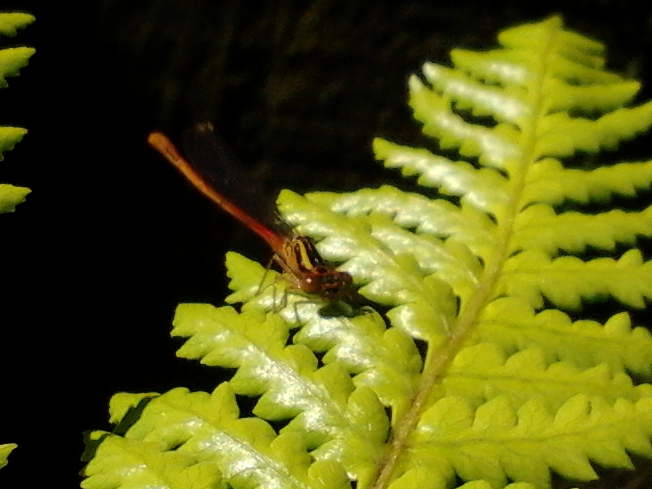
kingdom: Animalia
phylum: Arthropoda
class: Insecta
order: Odonata
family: Coenagrionidae
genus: Xanthocnemis
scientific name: Xanthocnemis zealandica
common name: Common redcoat damselfly
